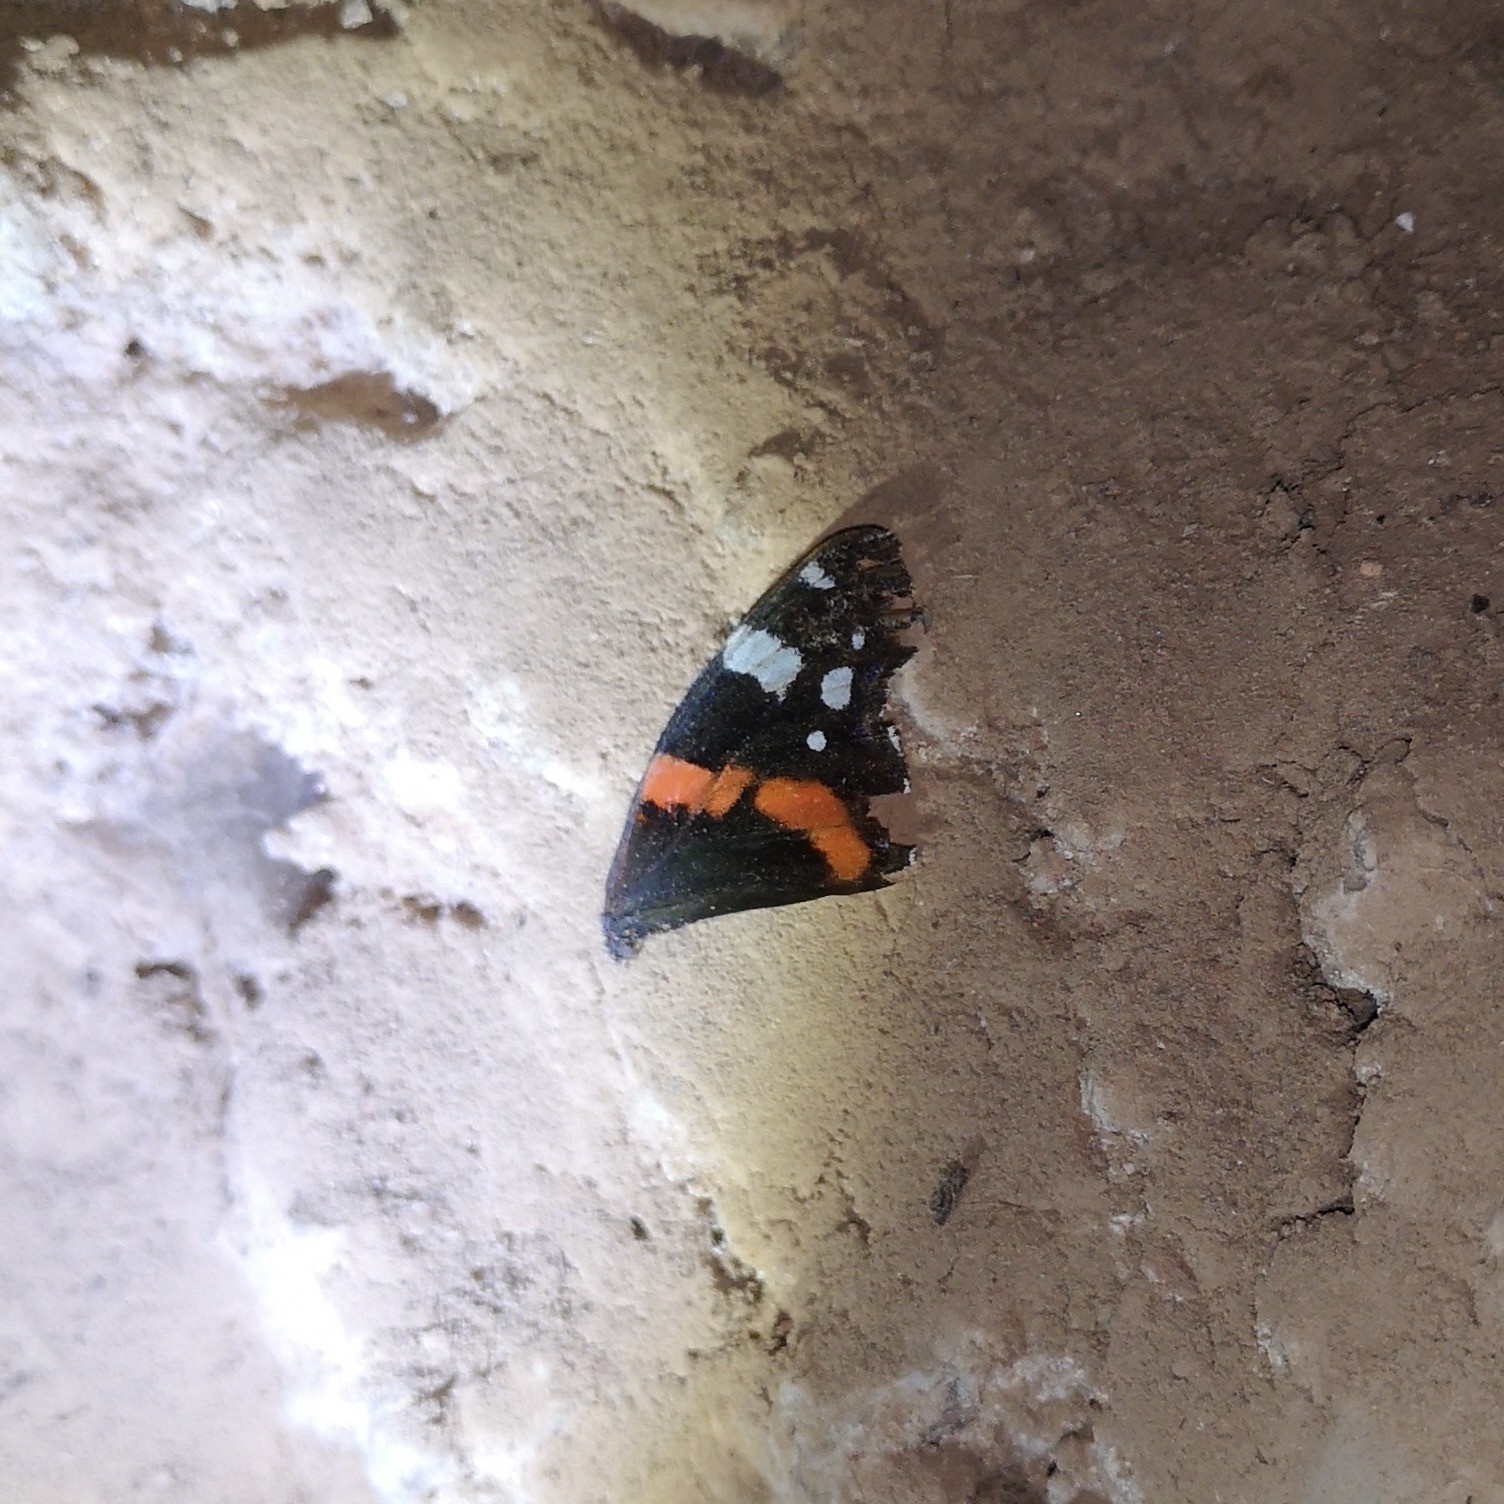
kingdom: Animalia
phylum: Arthropoda
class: Insecta
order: Lepidoptera
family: Nymphalidae
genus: Vanessa
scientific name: Vanessa atalanta
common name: Red admiral
